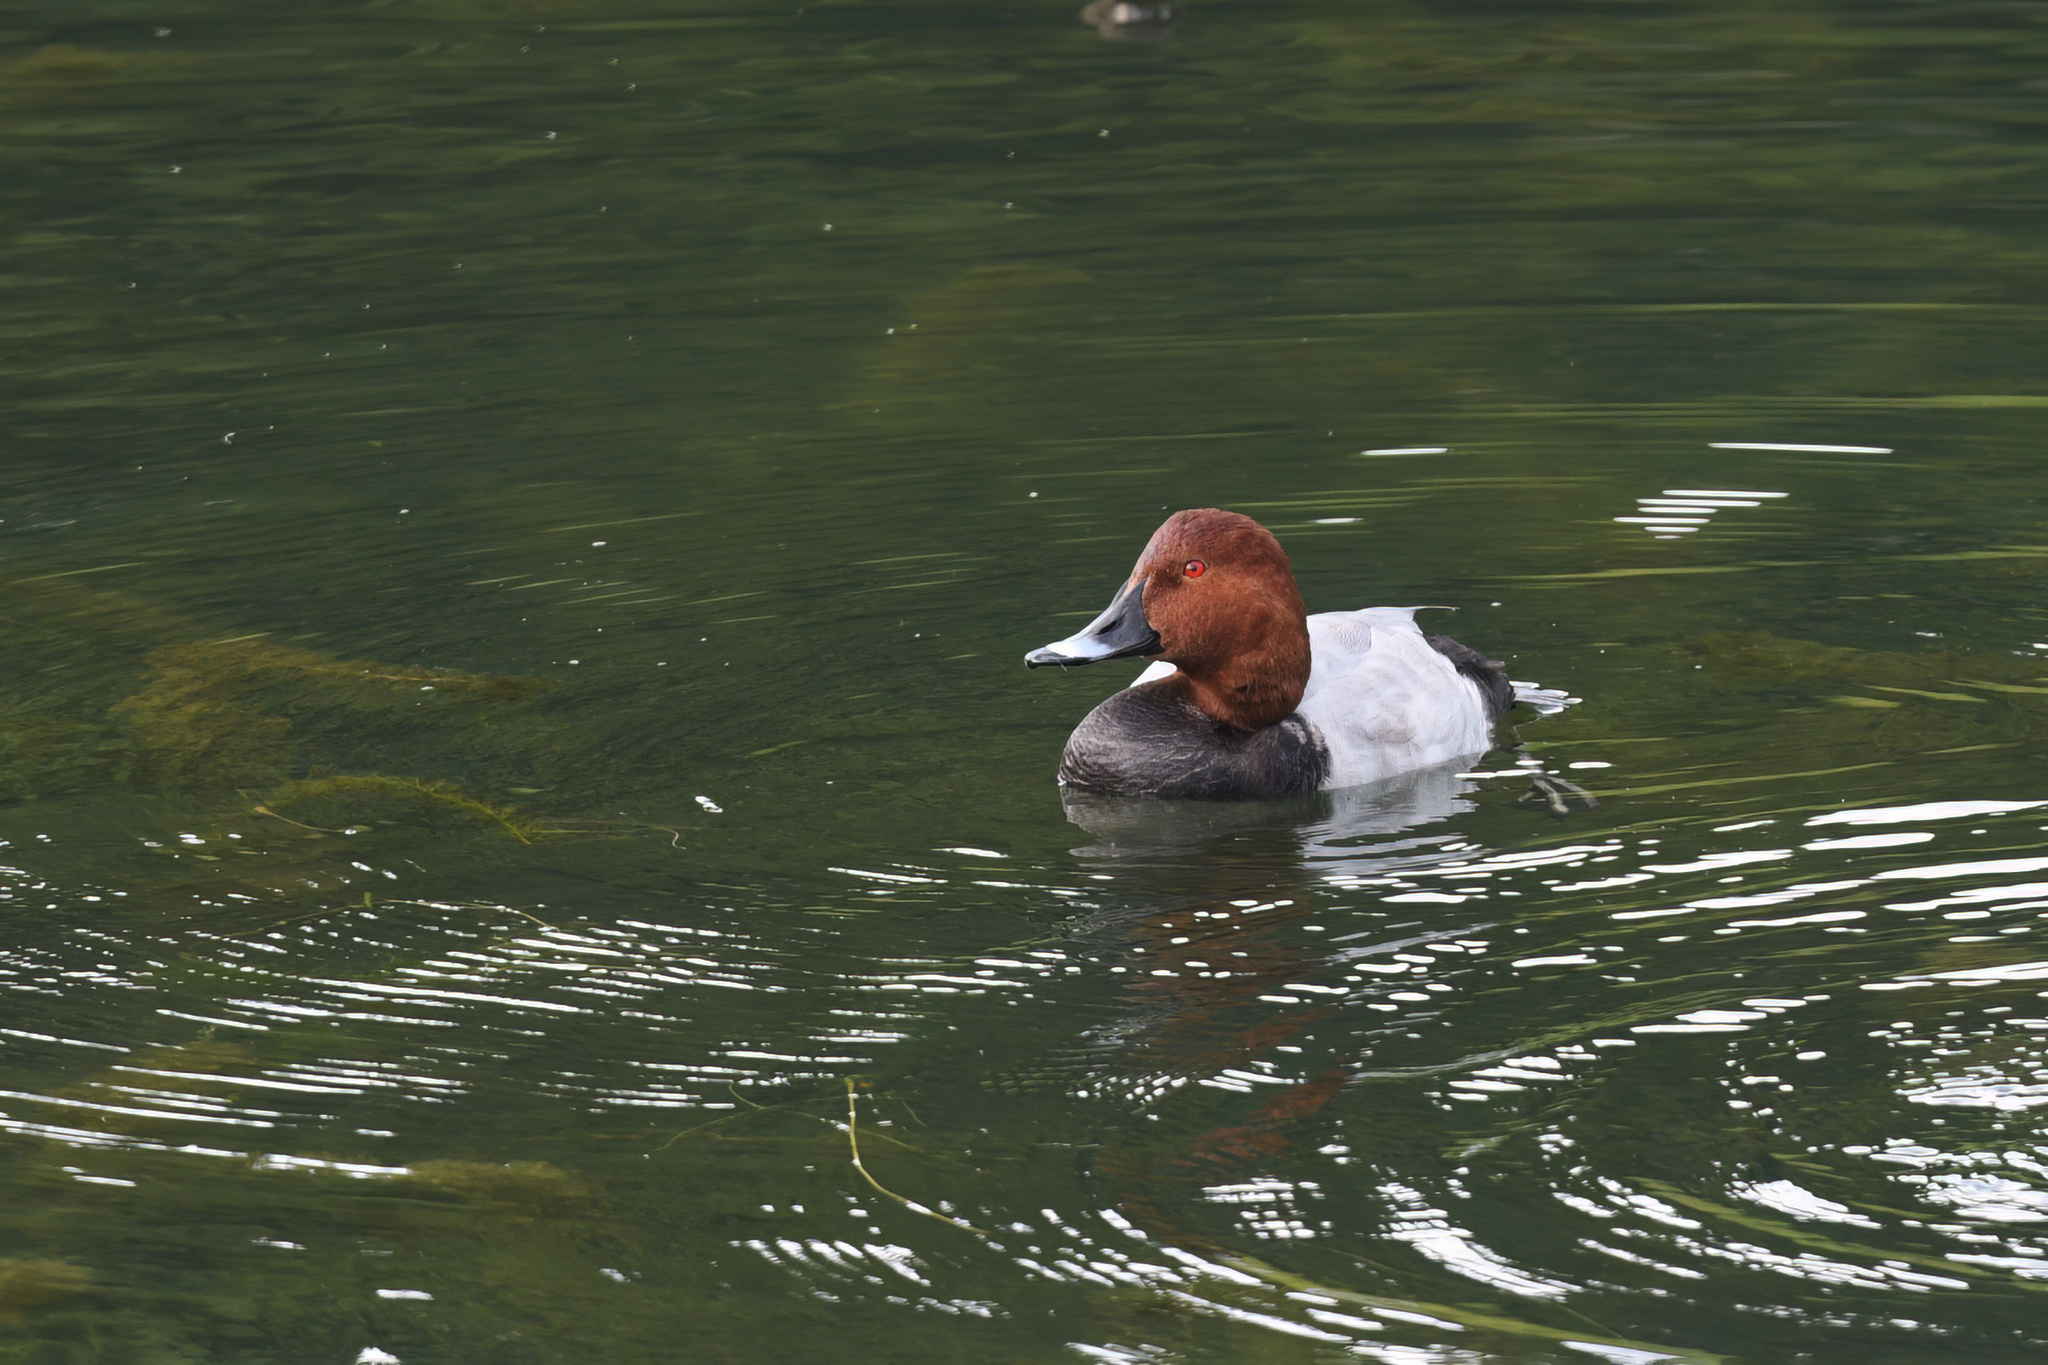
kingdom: Animalia
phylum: Chordata
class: Aves
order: Anseriformes
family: Anatidae
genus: Aythya
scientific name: Aythya ferina
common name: Common pochard
